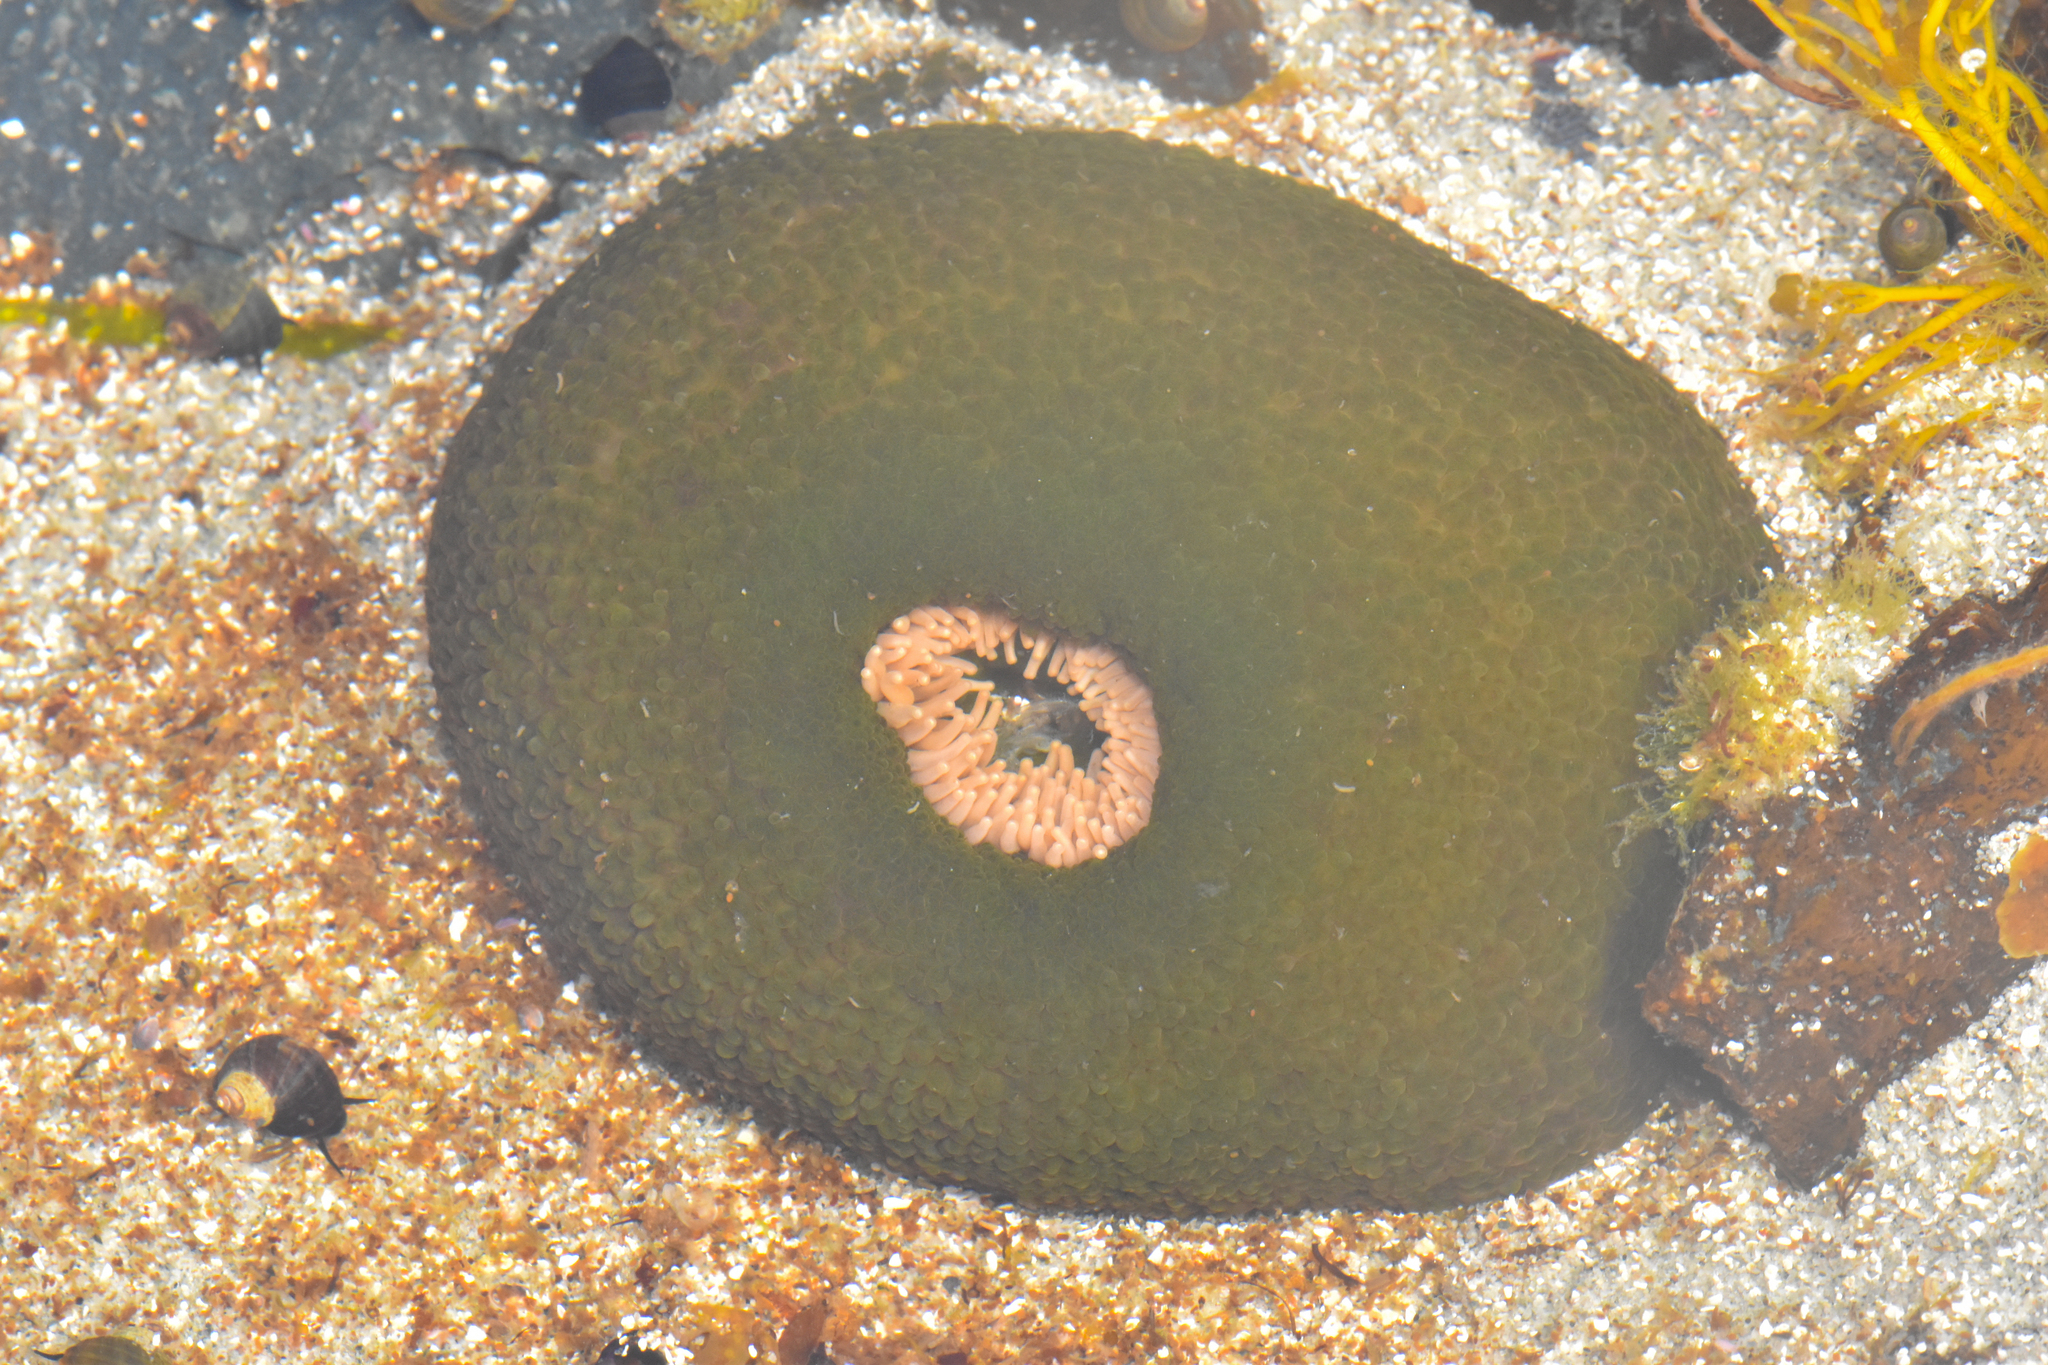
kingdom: Animalia
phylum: Cnidaria
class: Anthozoa
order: Actiniaria
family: Actiniidae
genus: Anthopleura
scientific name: Anthopleura xanthogrammica
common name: Giant green anemone
